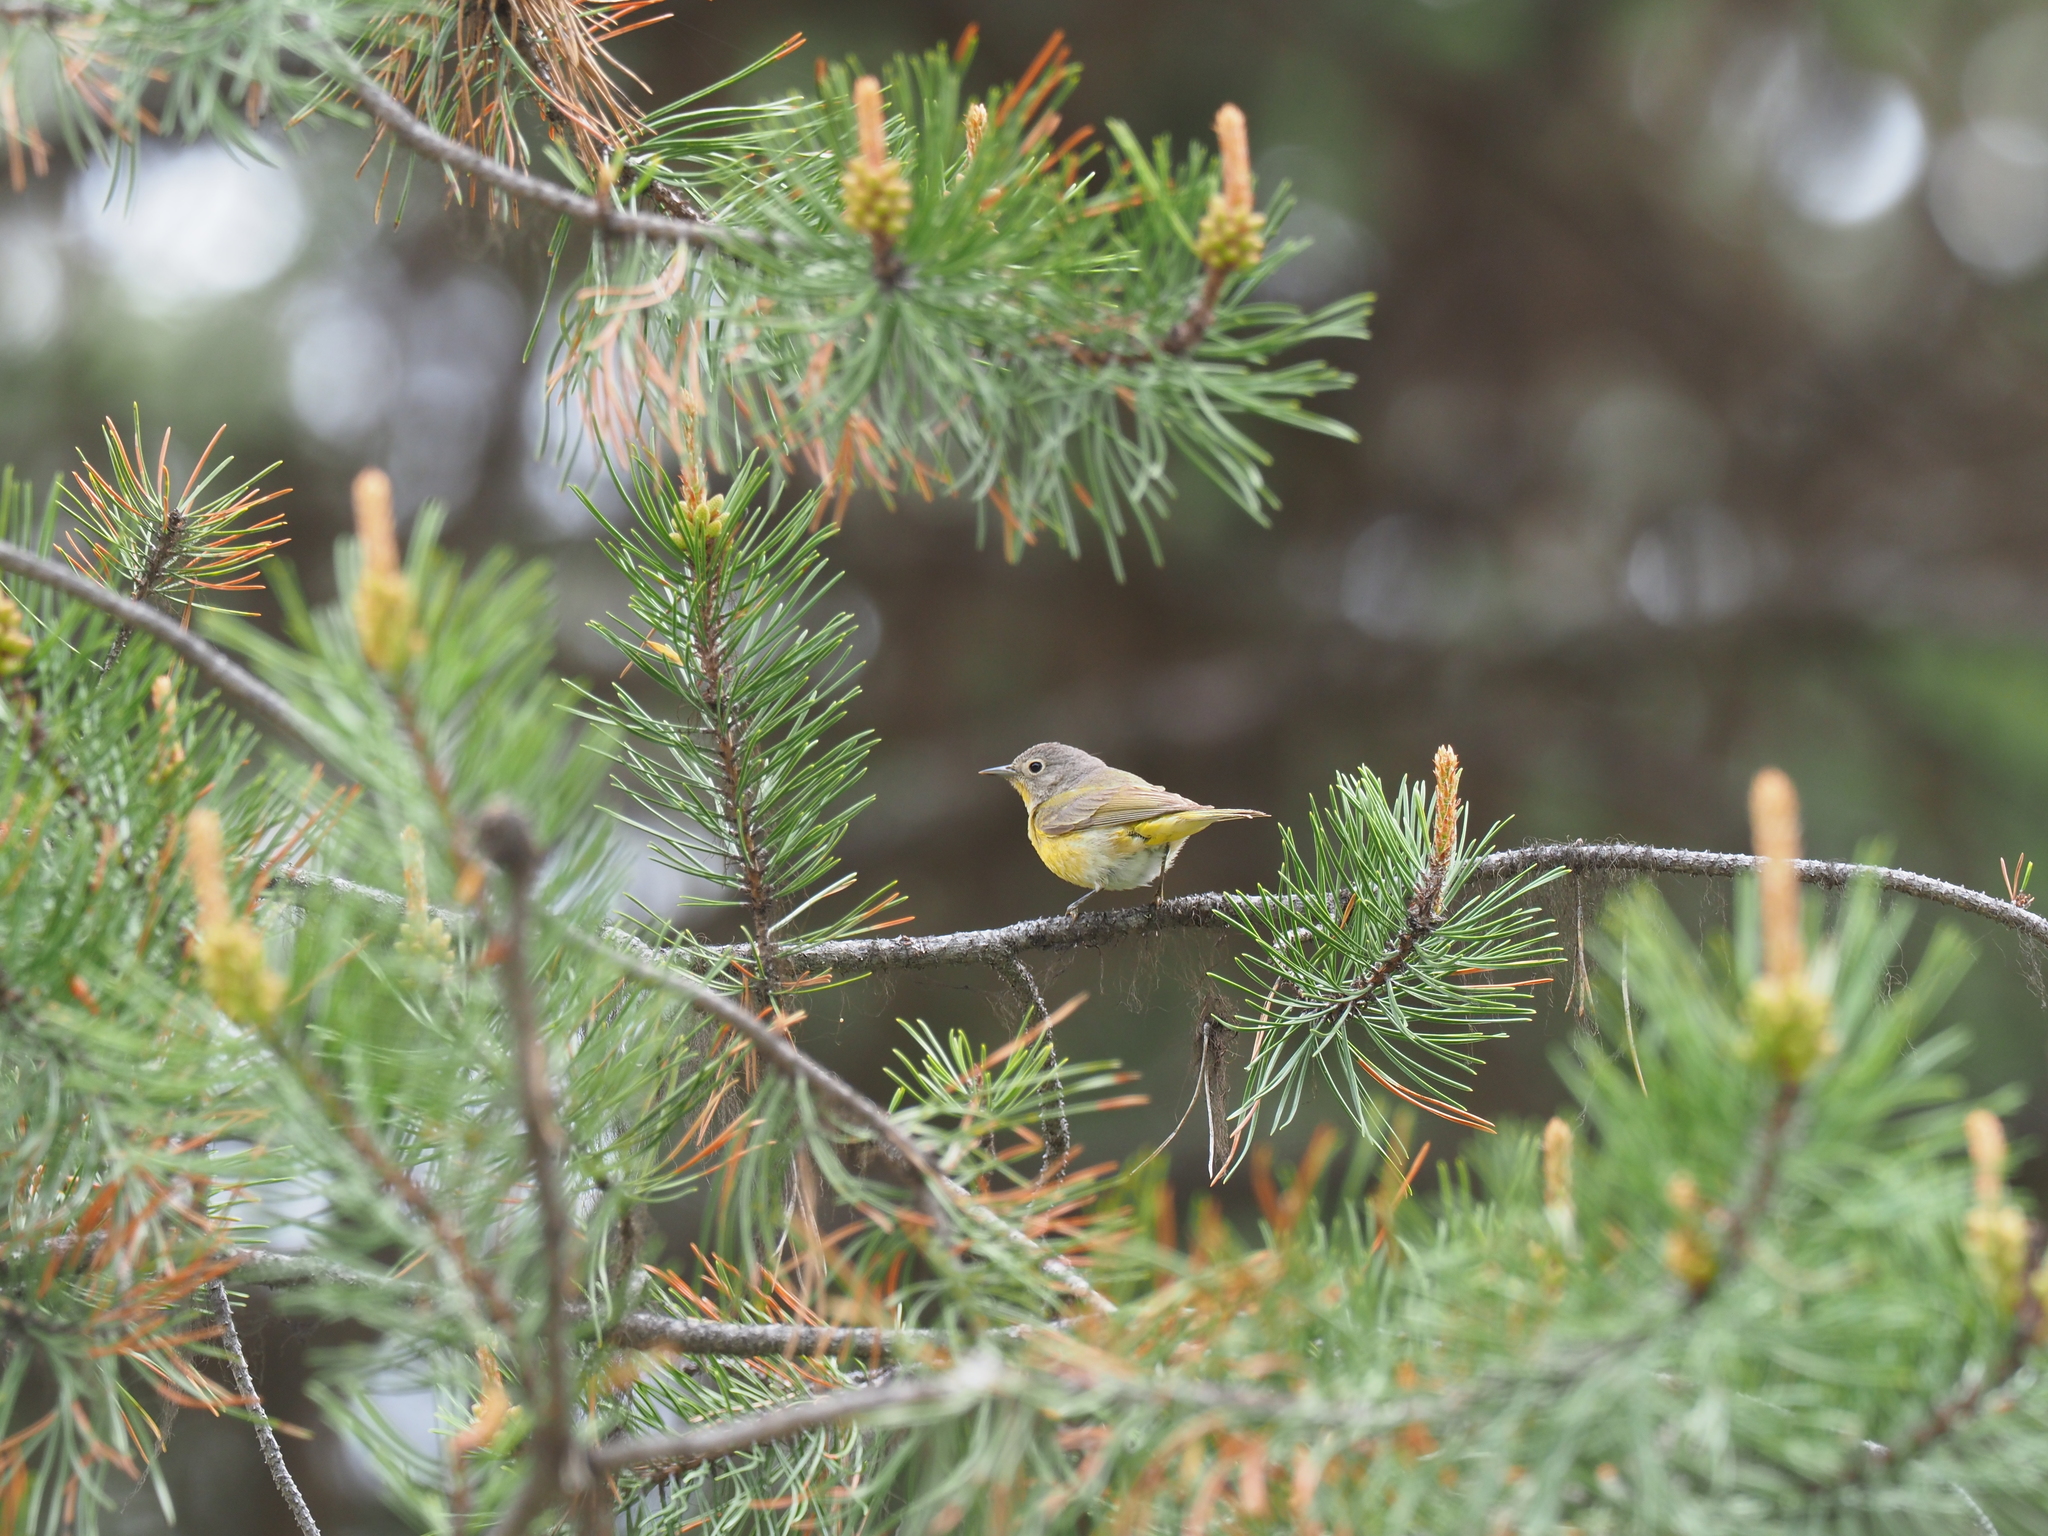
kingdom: Animalia
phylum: Chordata
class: Aves
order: Passeriformes
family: Parulidae
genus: Leiothlypis
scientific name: Leiothlypis ruficapilla
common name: Nashville warbler
